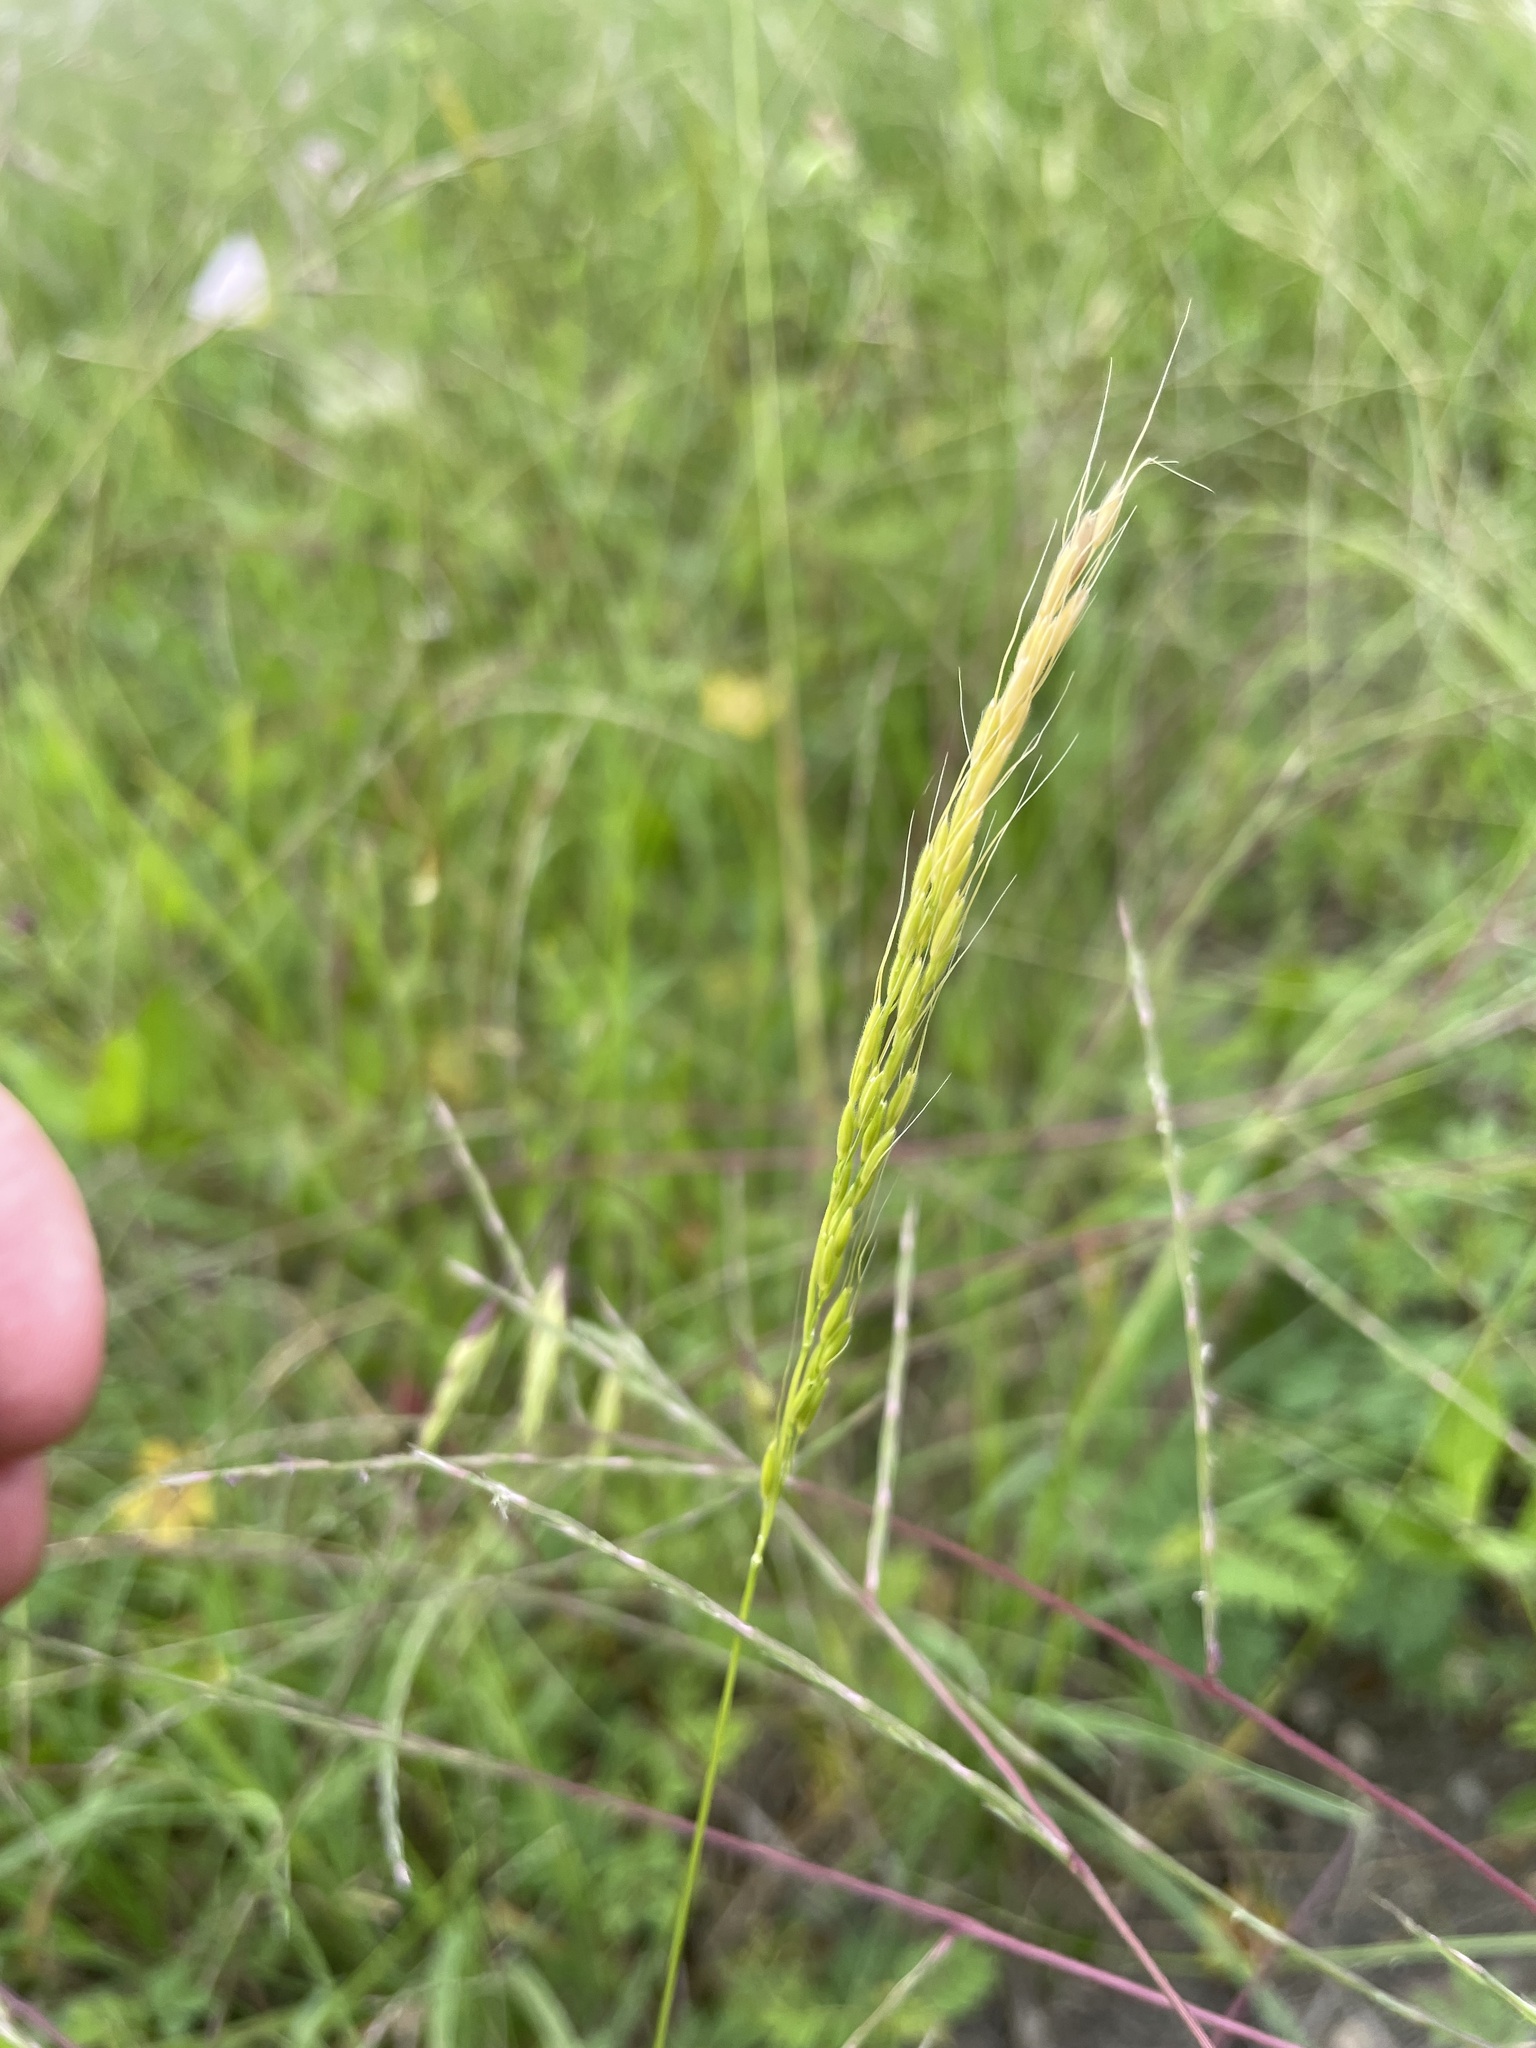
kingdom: Plantae
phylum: Tracheophyta
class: Liliopsida
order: Poales
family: Poaceae
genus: Limnodea
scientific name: Limnodea arkansana
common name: Ozark-grass
